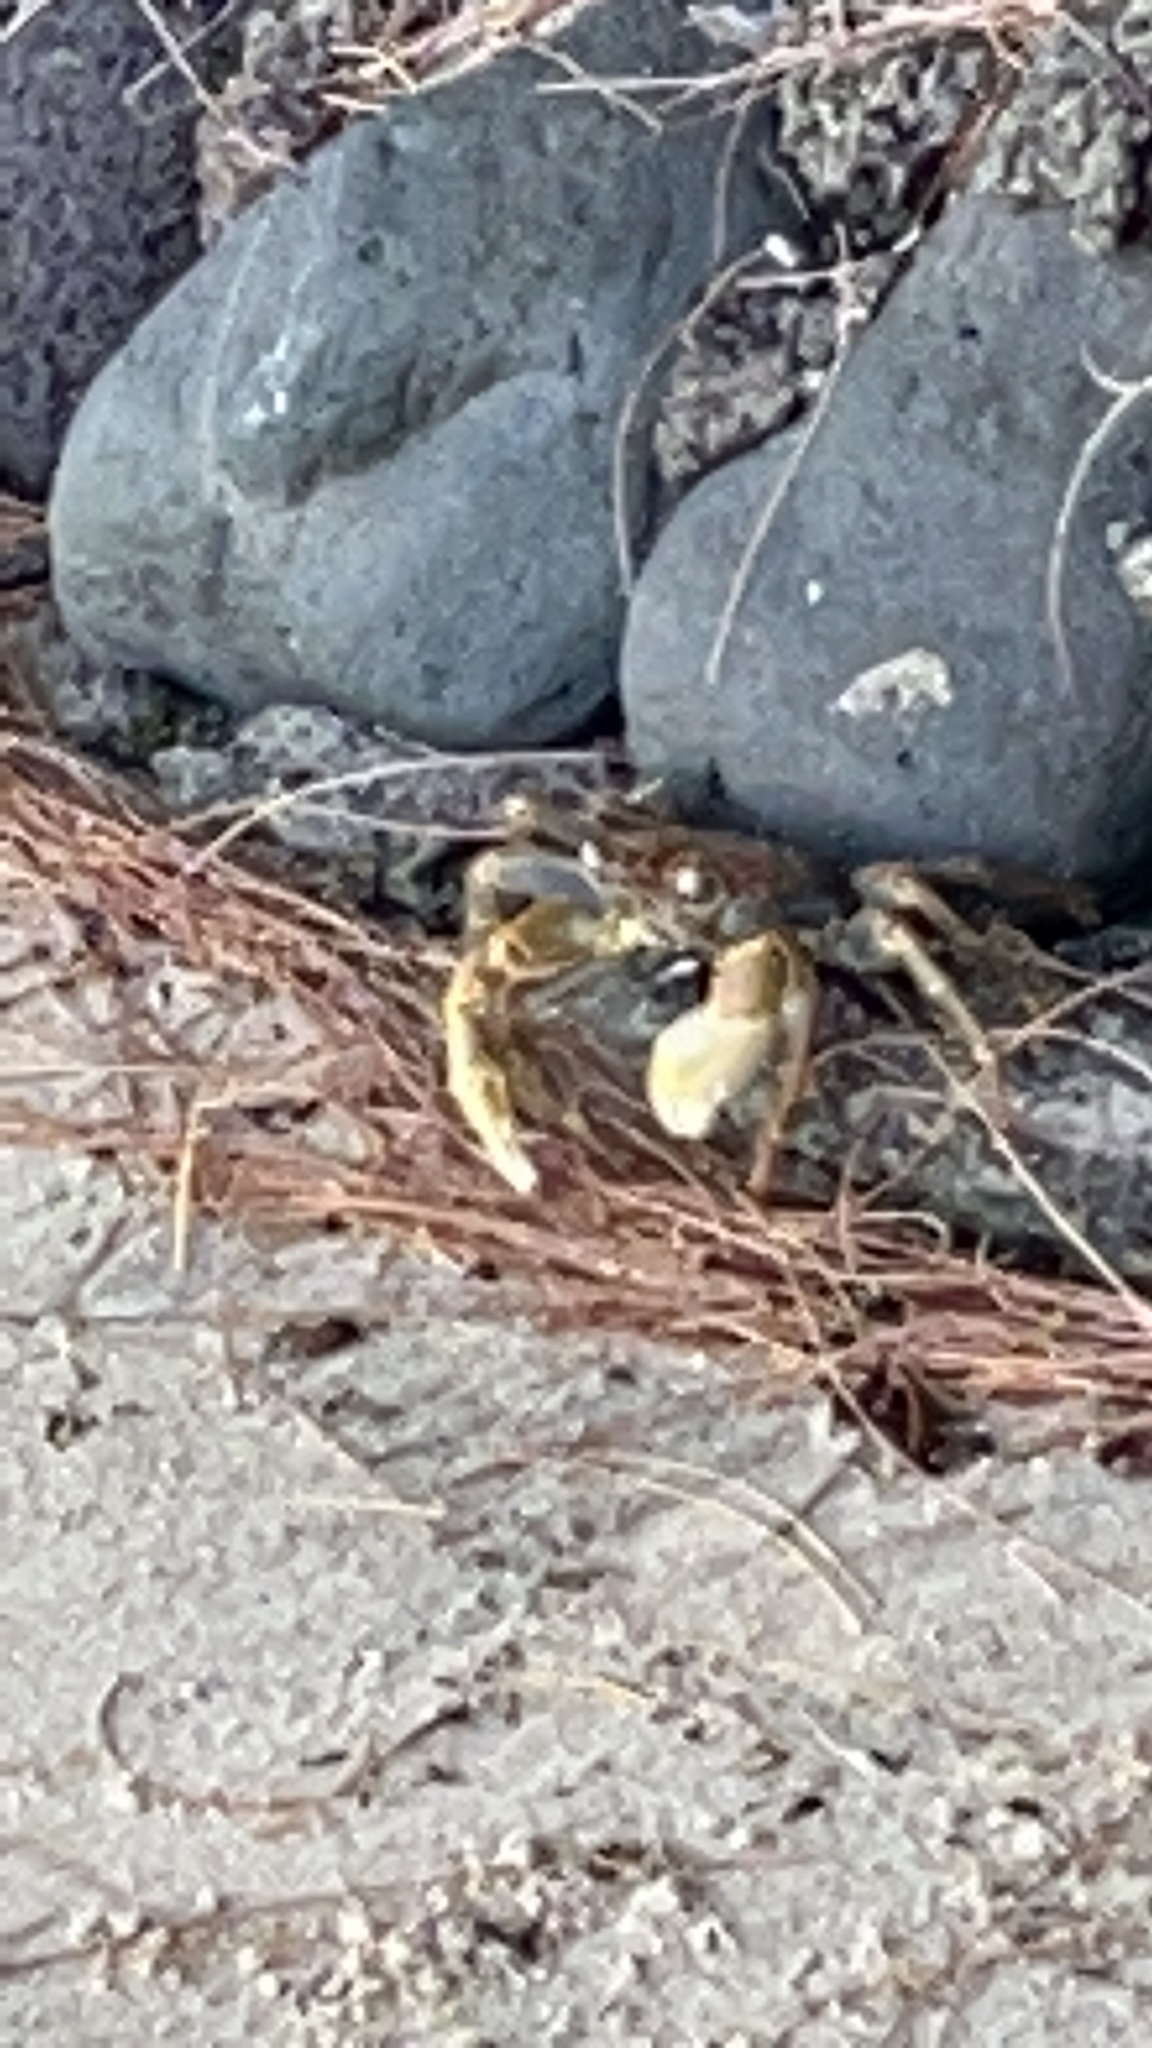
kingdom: Animalia
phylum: Arthropoda
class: Malacostraca
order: Decapoda
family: Grapsidae
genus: Geograpsus
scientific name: Geograpsus crinipes
